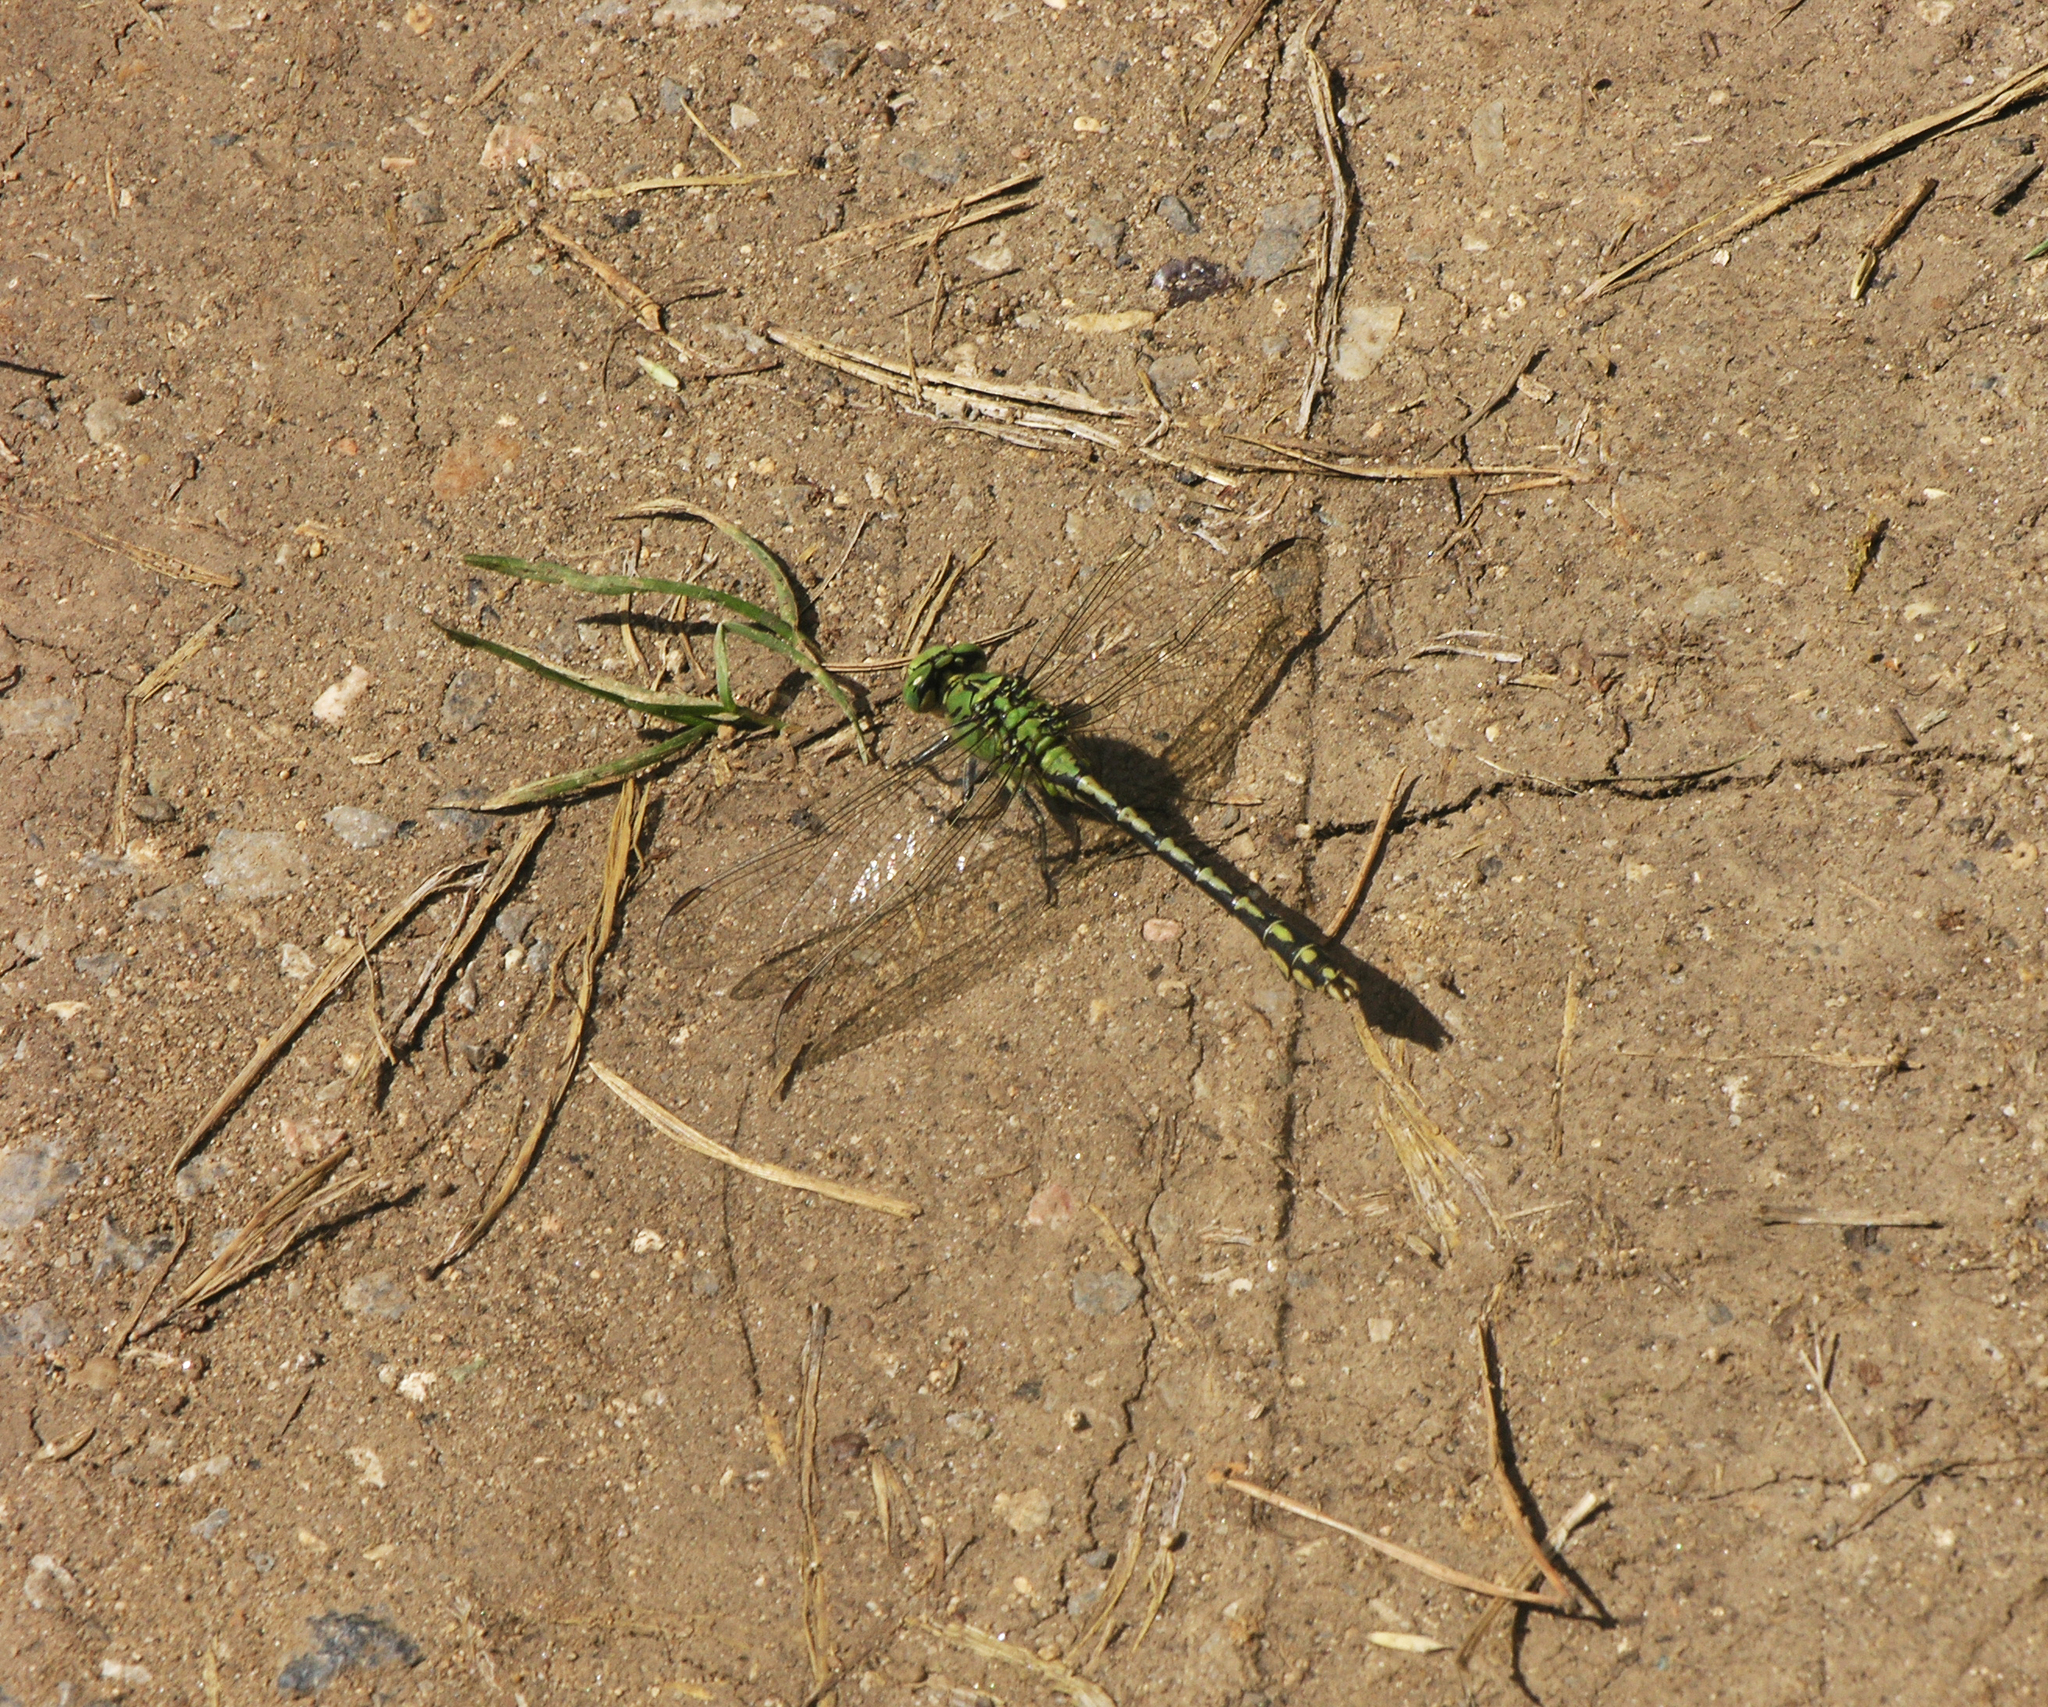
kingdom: Animalia
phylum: Arthropoda
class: Insecta
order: Odonata
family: Gomphidae
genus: Ophiogomphus
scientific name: Ophiogomphus cecilia
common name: Green snaketail
